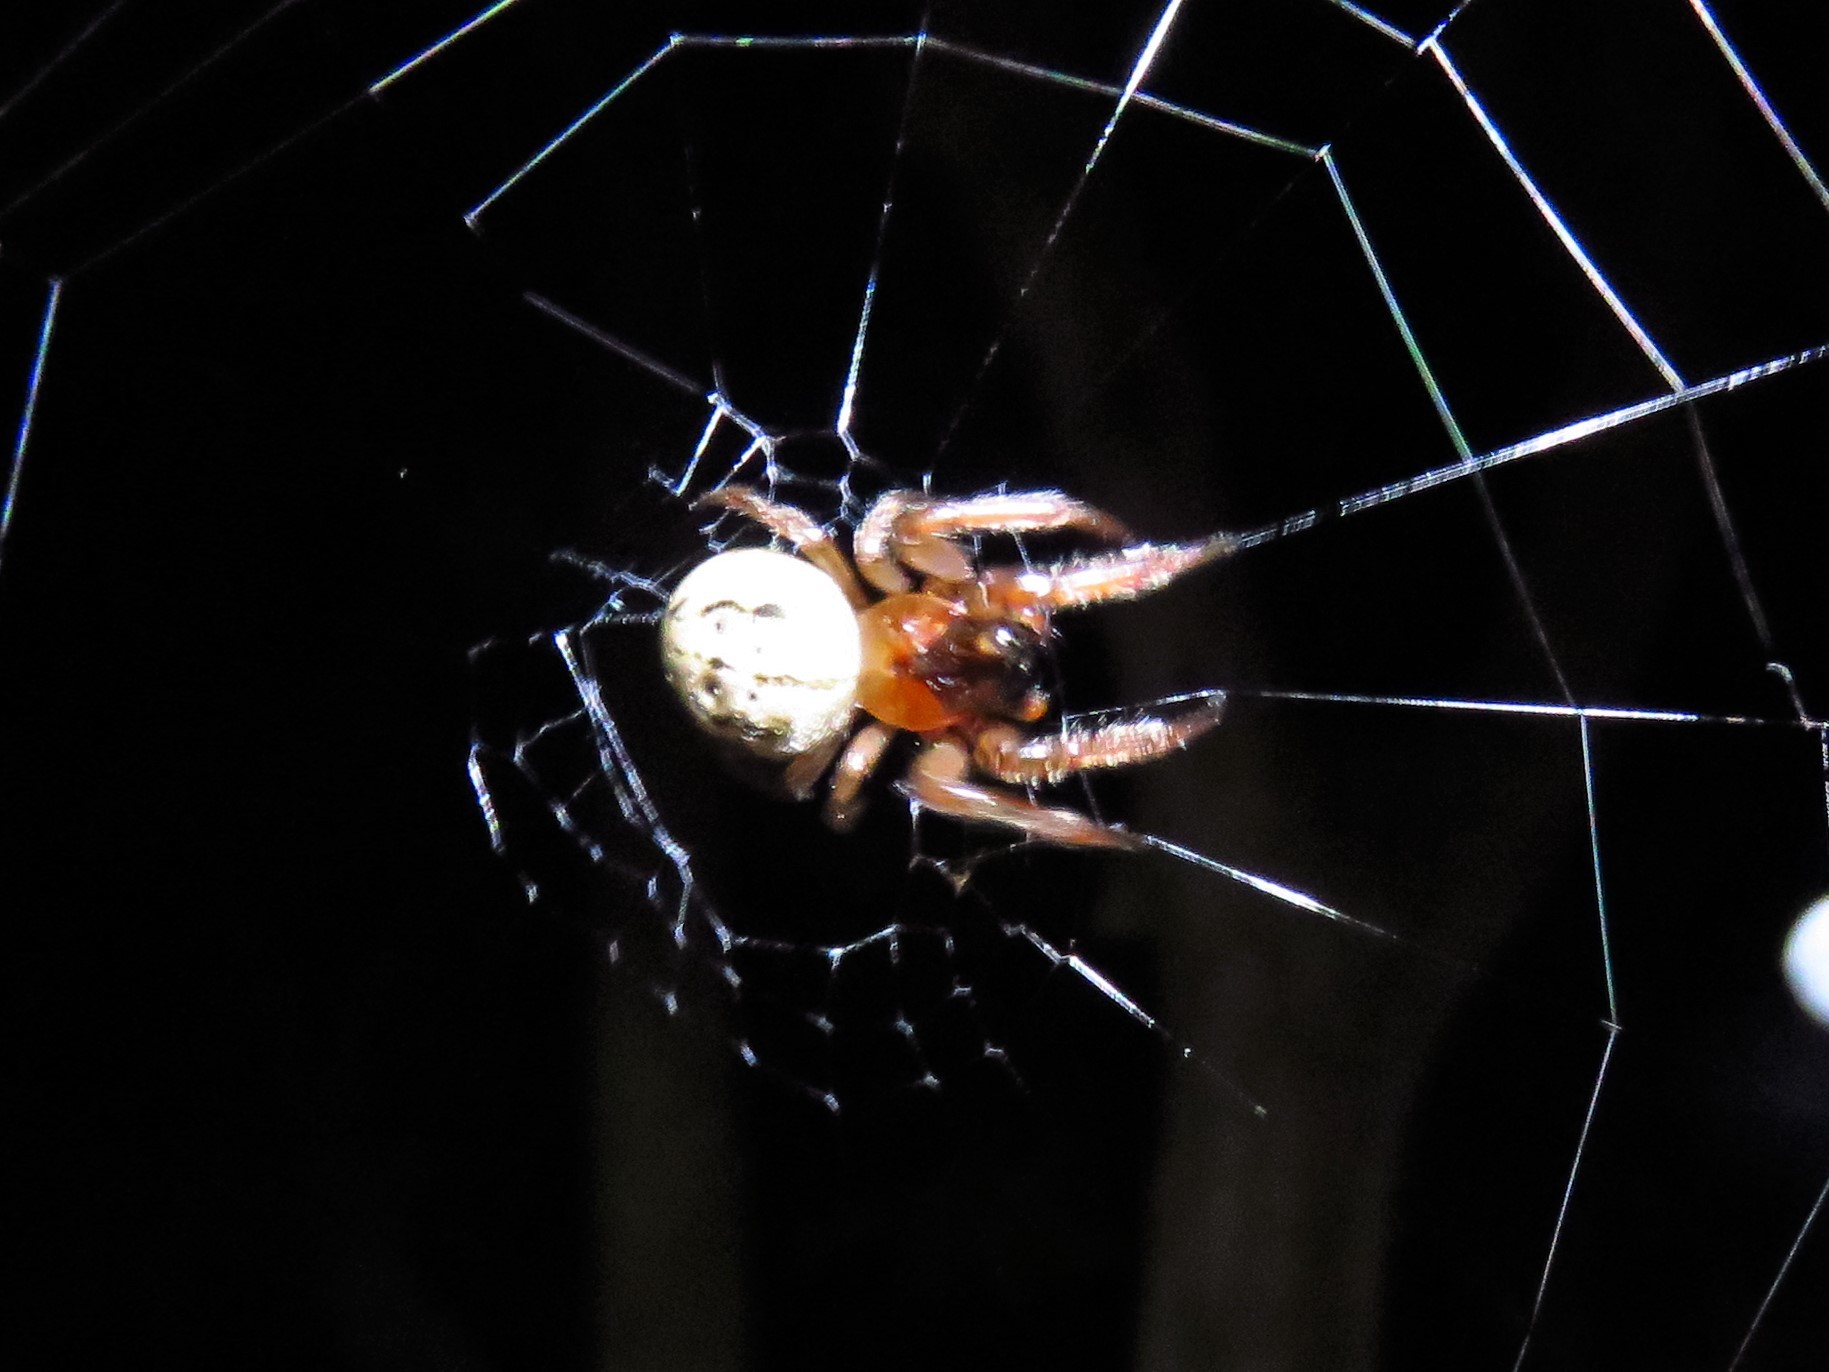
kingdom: Animalia
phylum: Arthropoda
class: Arachnida
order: Araneae
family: Araneidae
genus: Metazygia
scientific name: Metazygia wittfeldae
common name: Orb weavers
